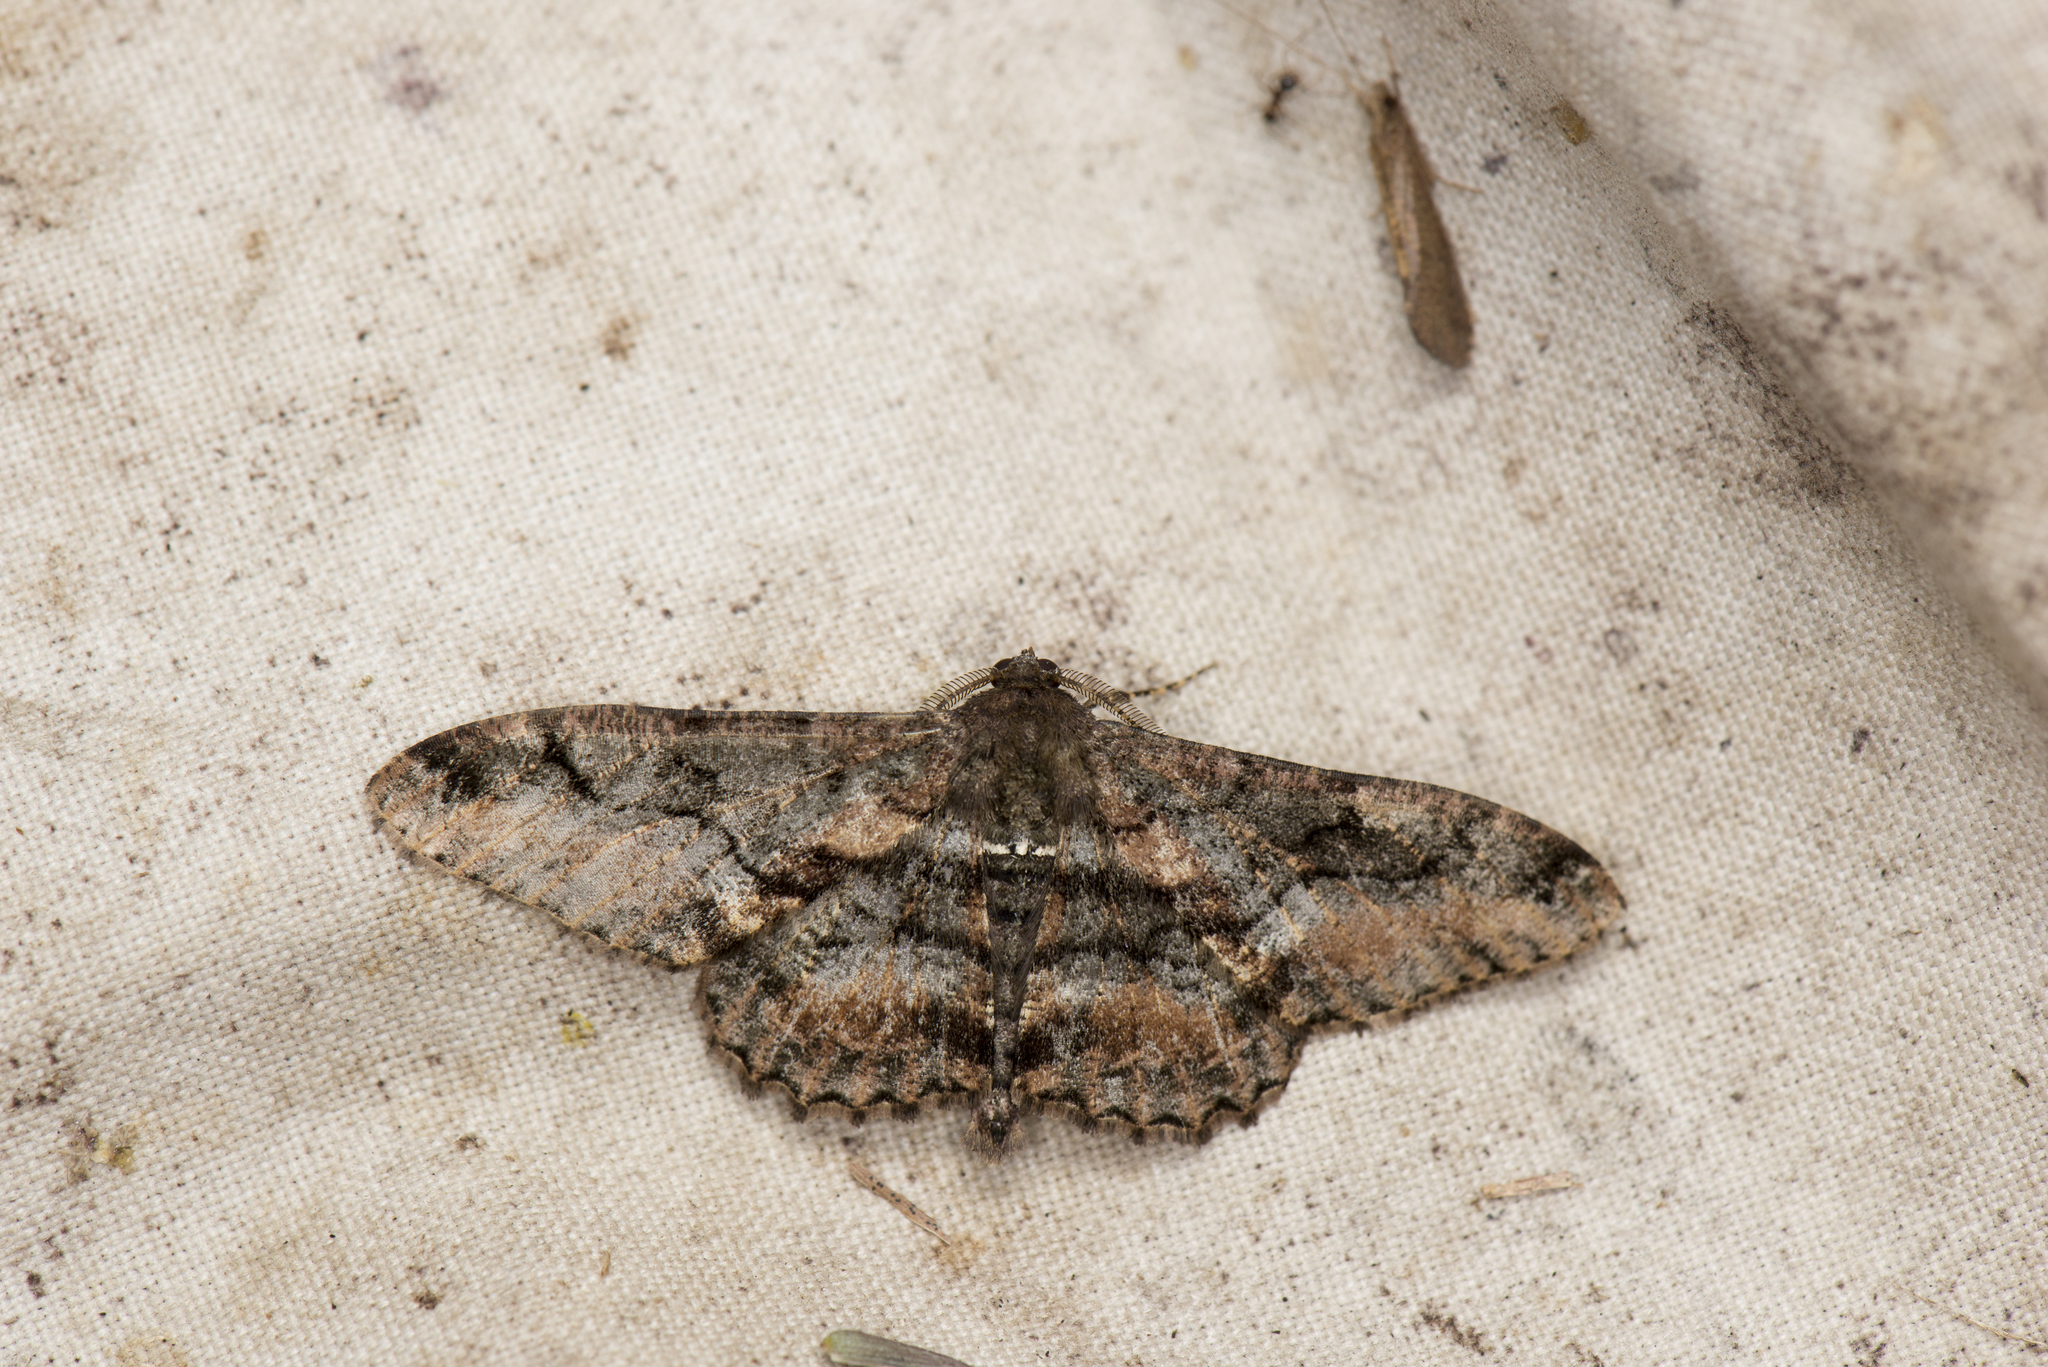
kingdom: Animalia
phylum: Arthropoda
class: Insecta
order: Lepidoptera
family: Geometridae
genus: Jankowskia
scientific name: Jankowskia taiwanensis
